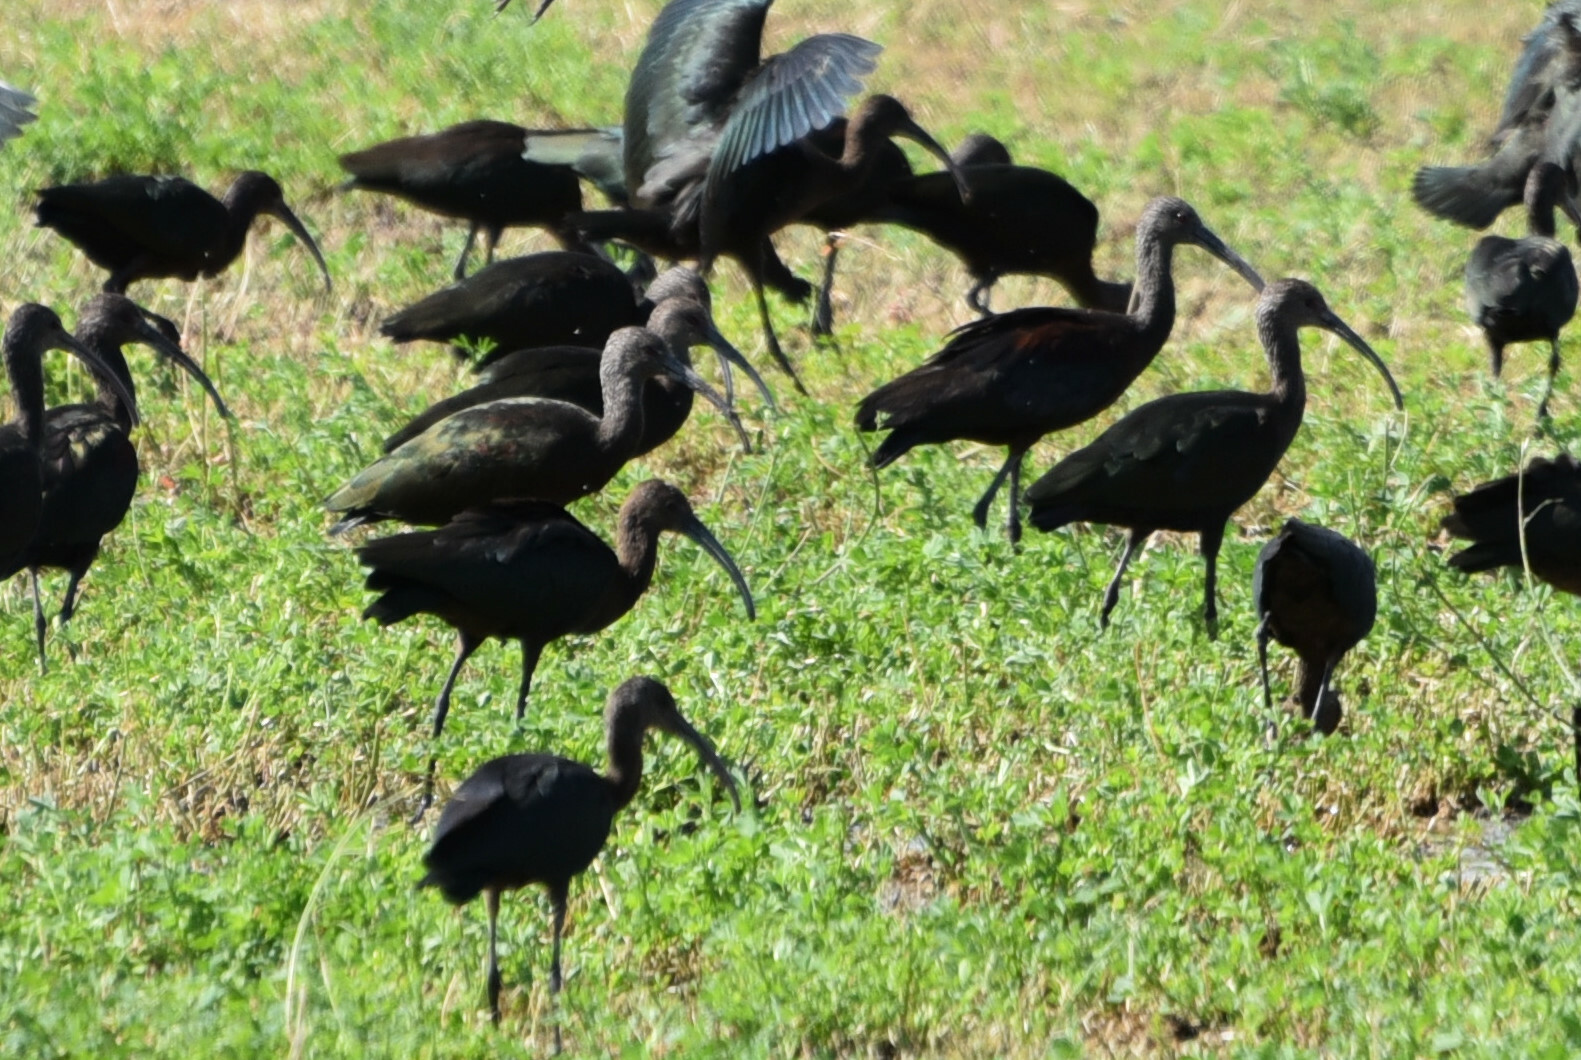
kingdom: Animalia
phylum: Chordata
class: Aves
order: Pelecaniformes
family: Threskiornithidae
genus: Plegadis
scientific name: Plegadis chihi
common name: White-faced ibis
